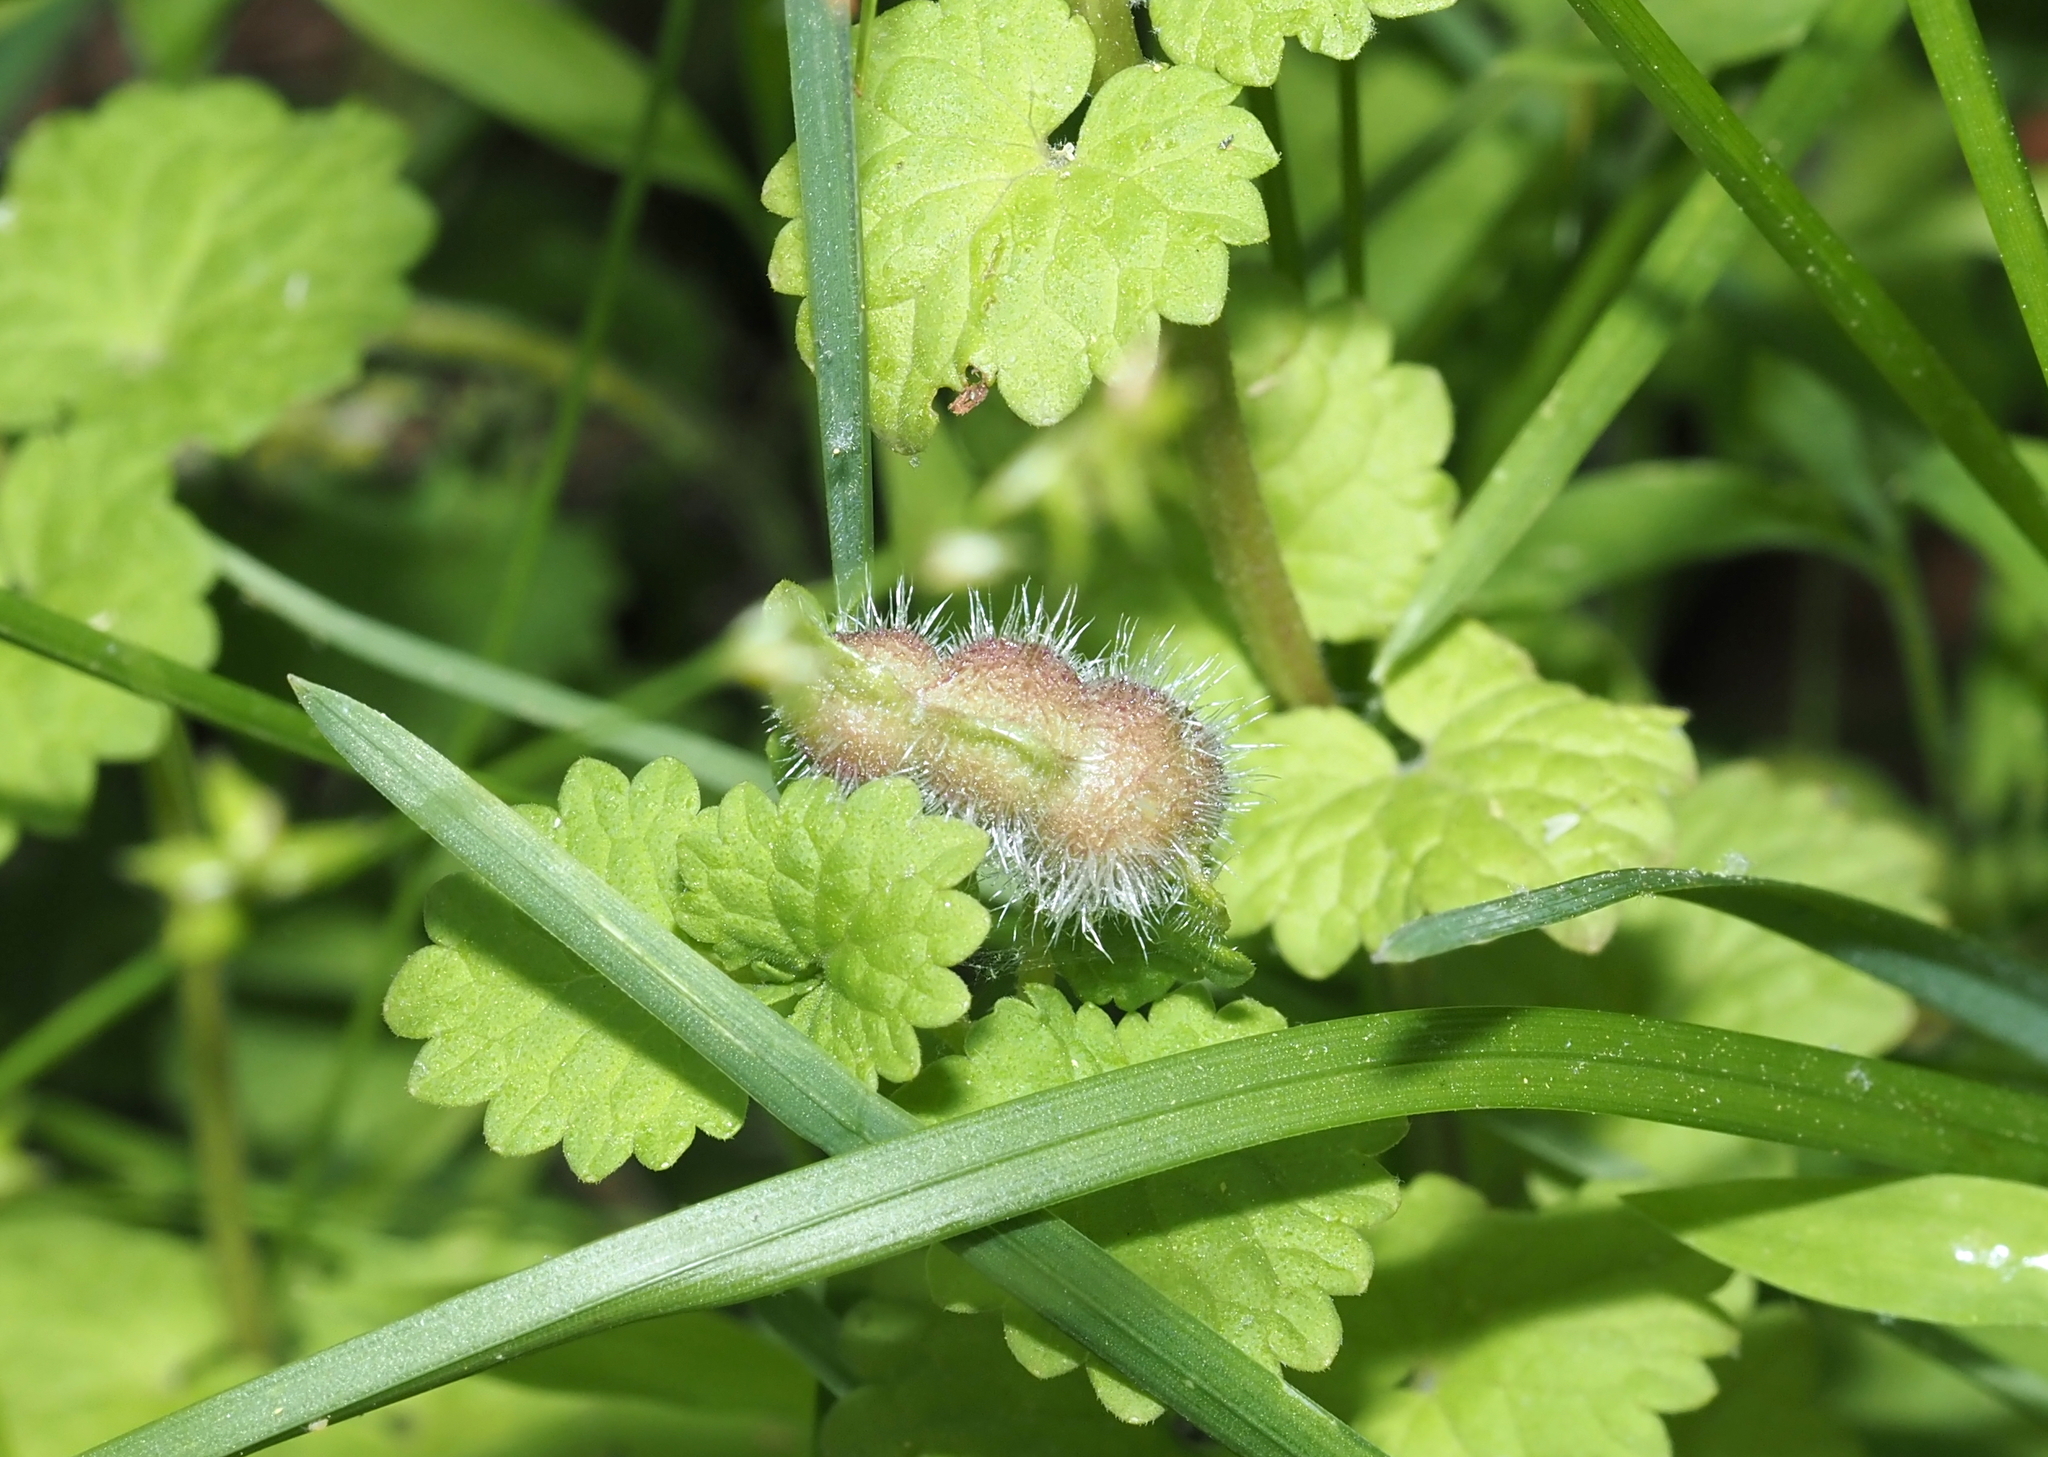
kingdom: Animalia
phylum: Arthropoda
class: Insecta
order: Hymenoptera
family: Cynipidae
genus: Liposthenes
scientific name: Liposthenes glechomae
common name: Gall wasp
